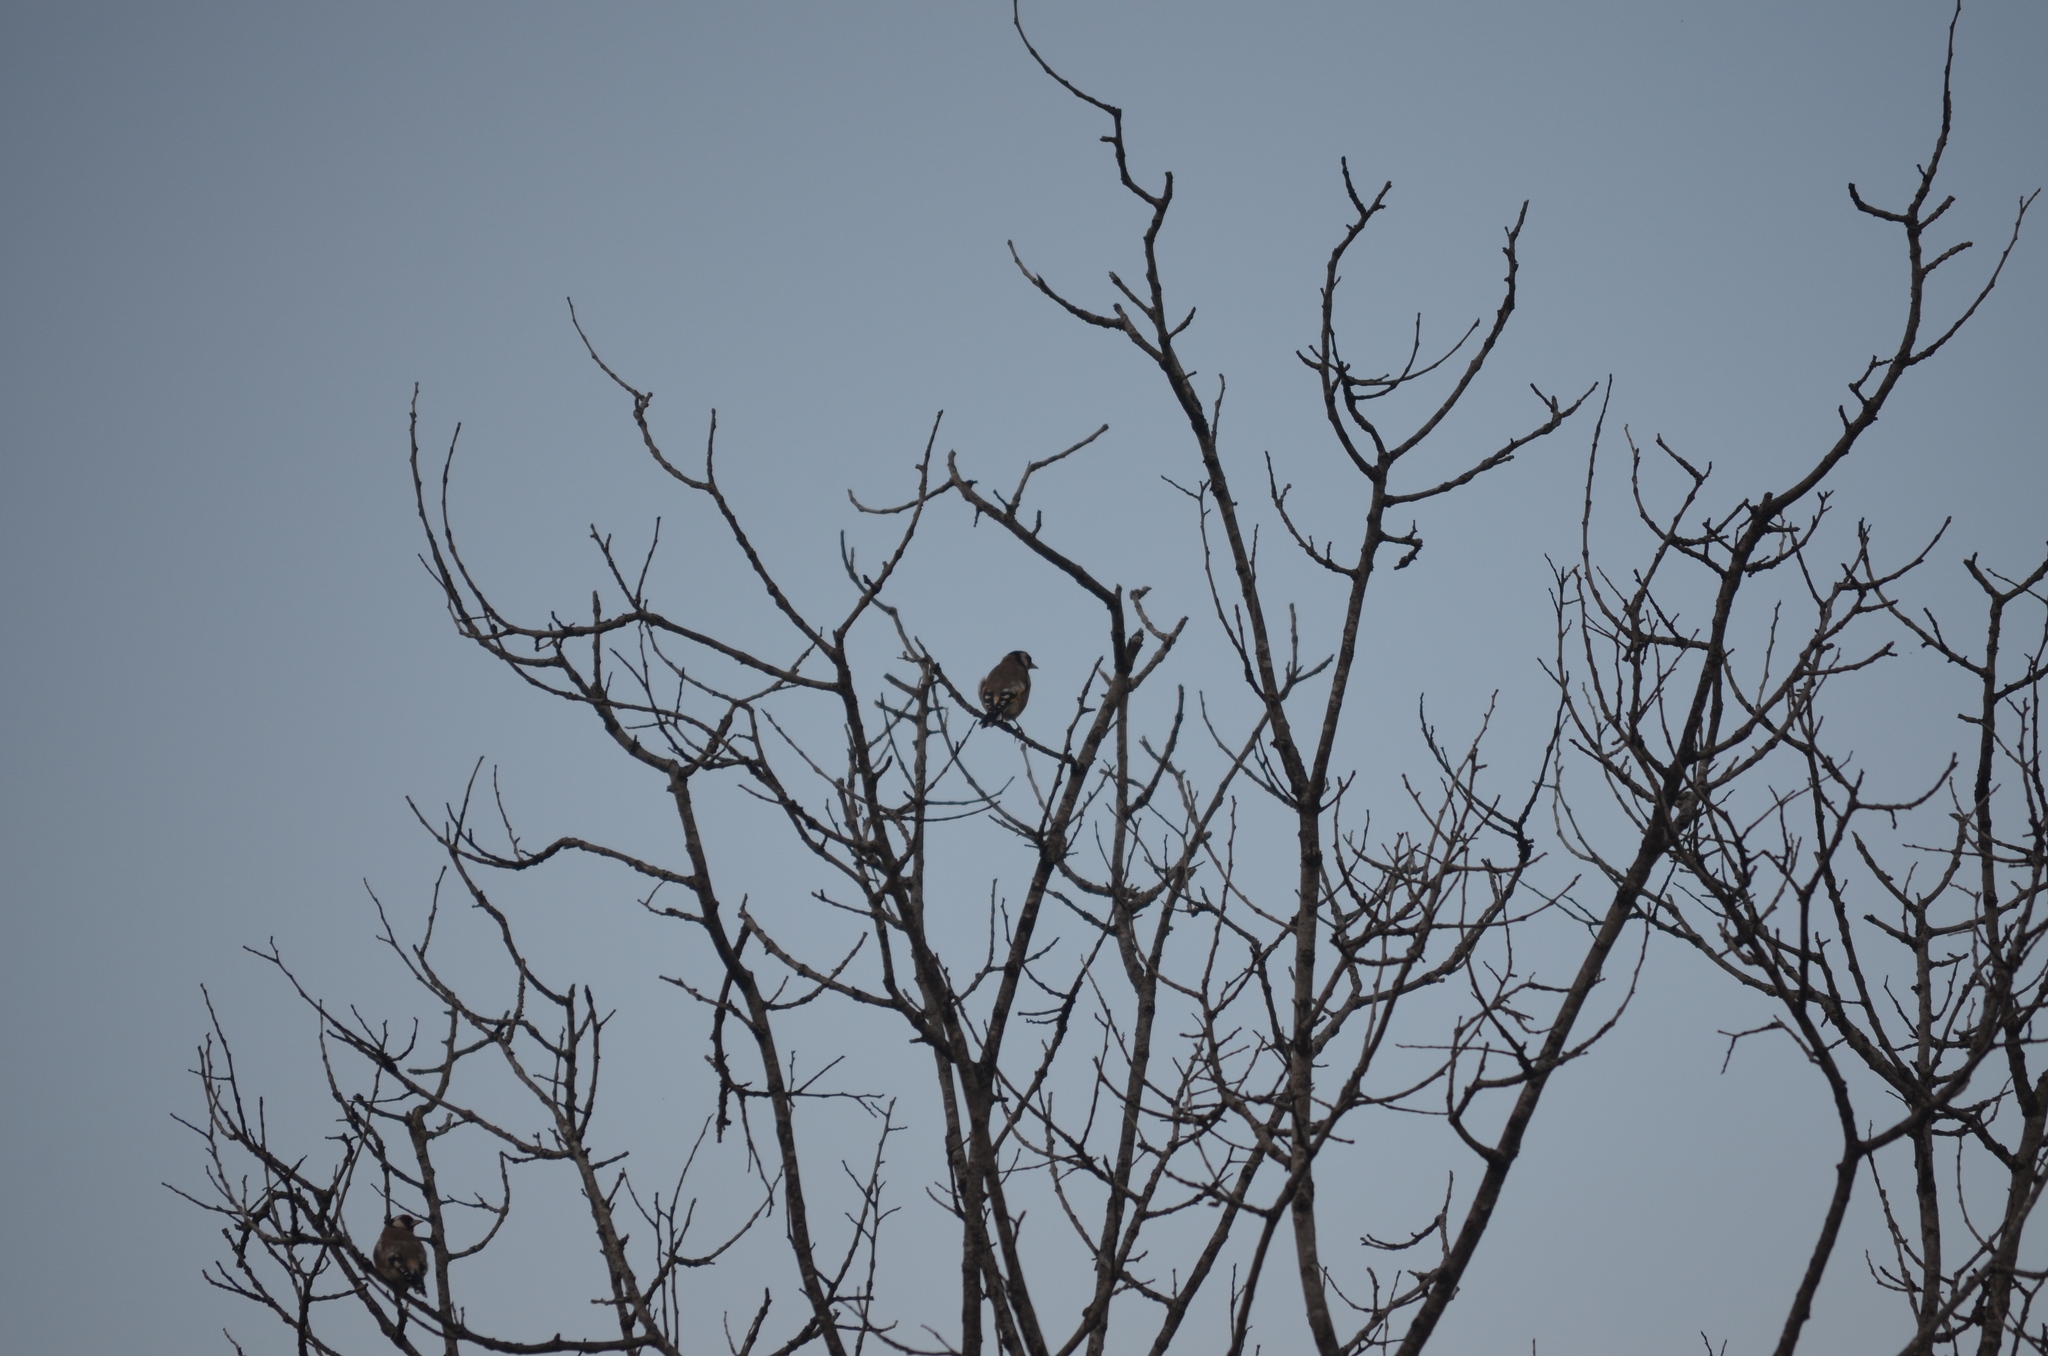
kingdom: Animalia
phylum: Chordata
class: Aves
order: Passeriformes
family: Fringillidae
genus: Carduelis
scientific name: Carduelis carduelis
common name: European goldfinch
